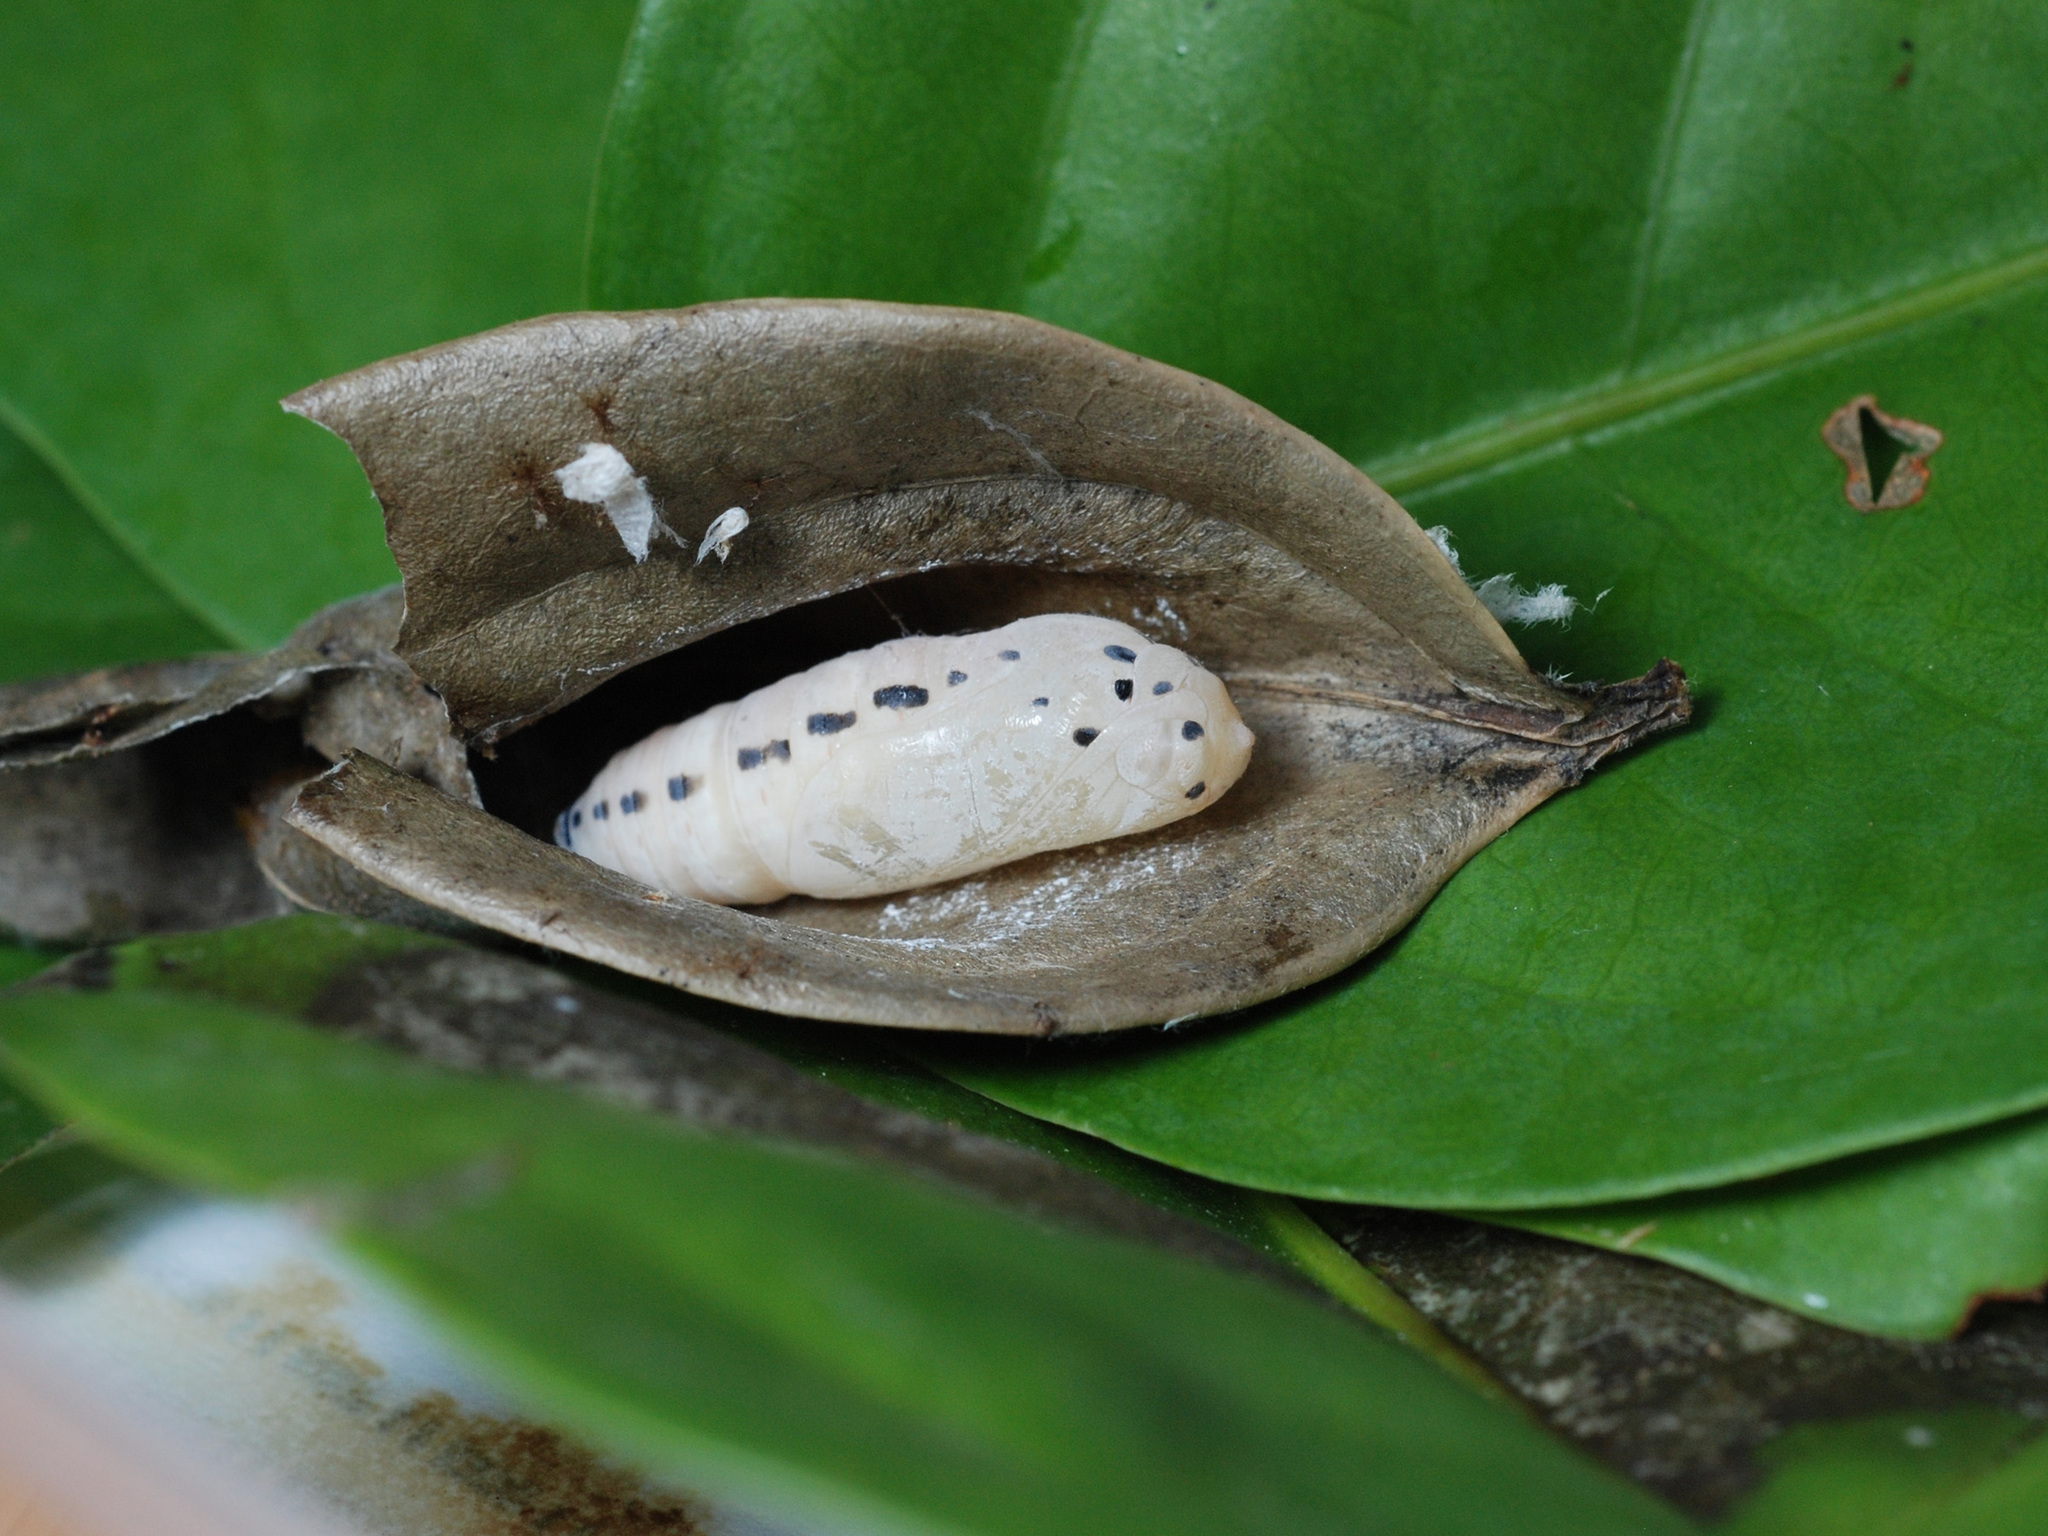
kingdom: Animalia
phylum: Arthropoda
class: Insecta
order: Lepidoptera
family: Hesperiidae
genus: Bibasis
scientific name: Bibasis harisa
